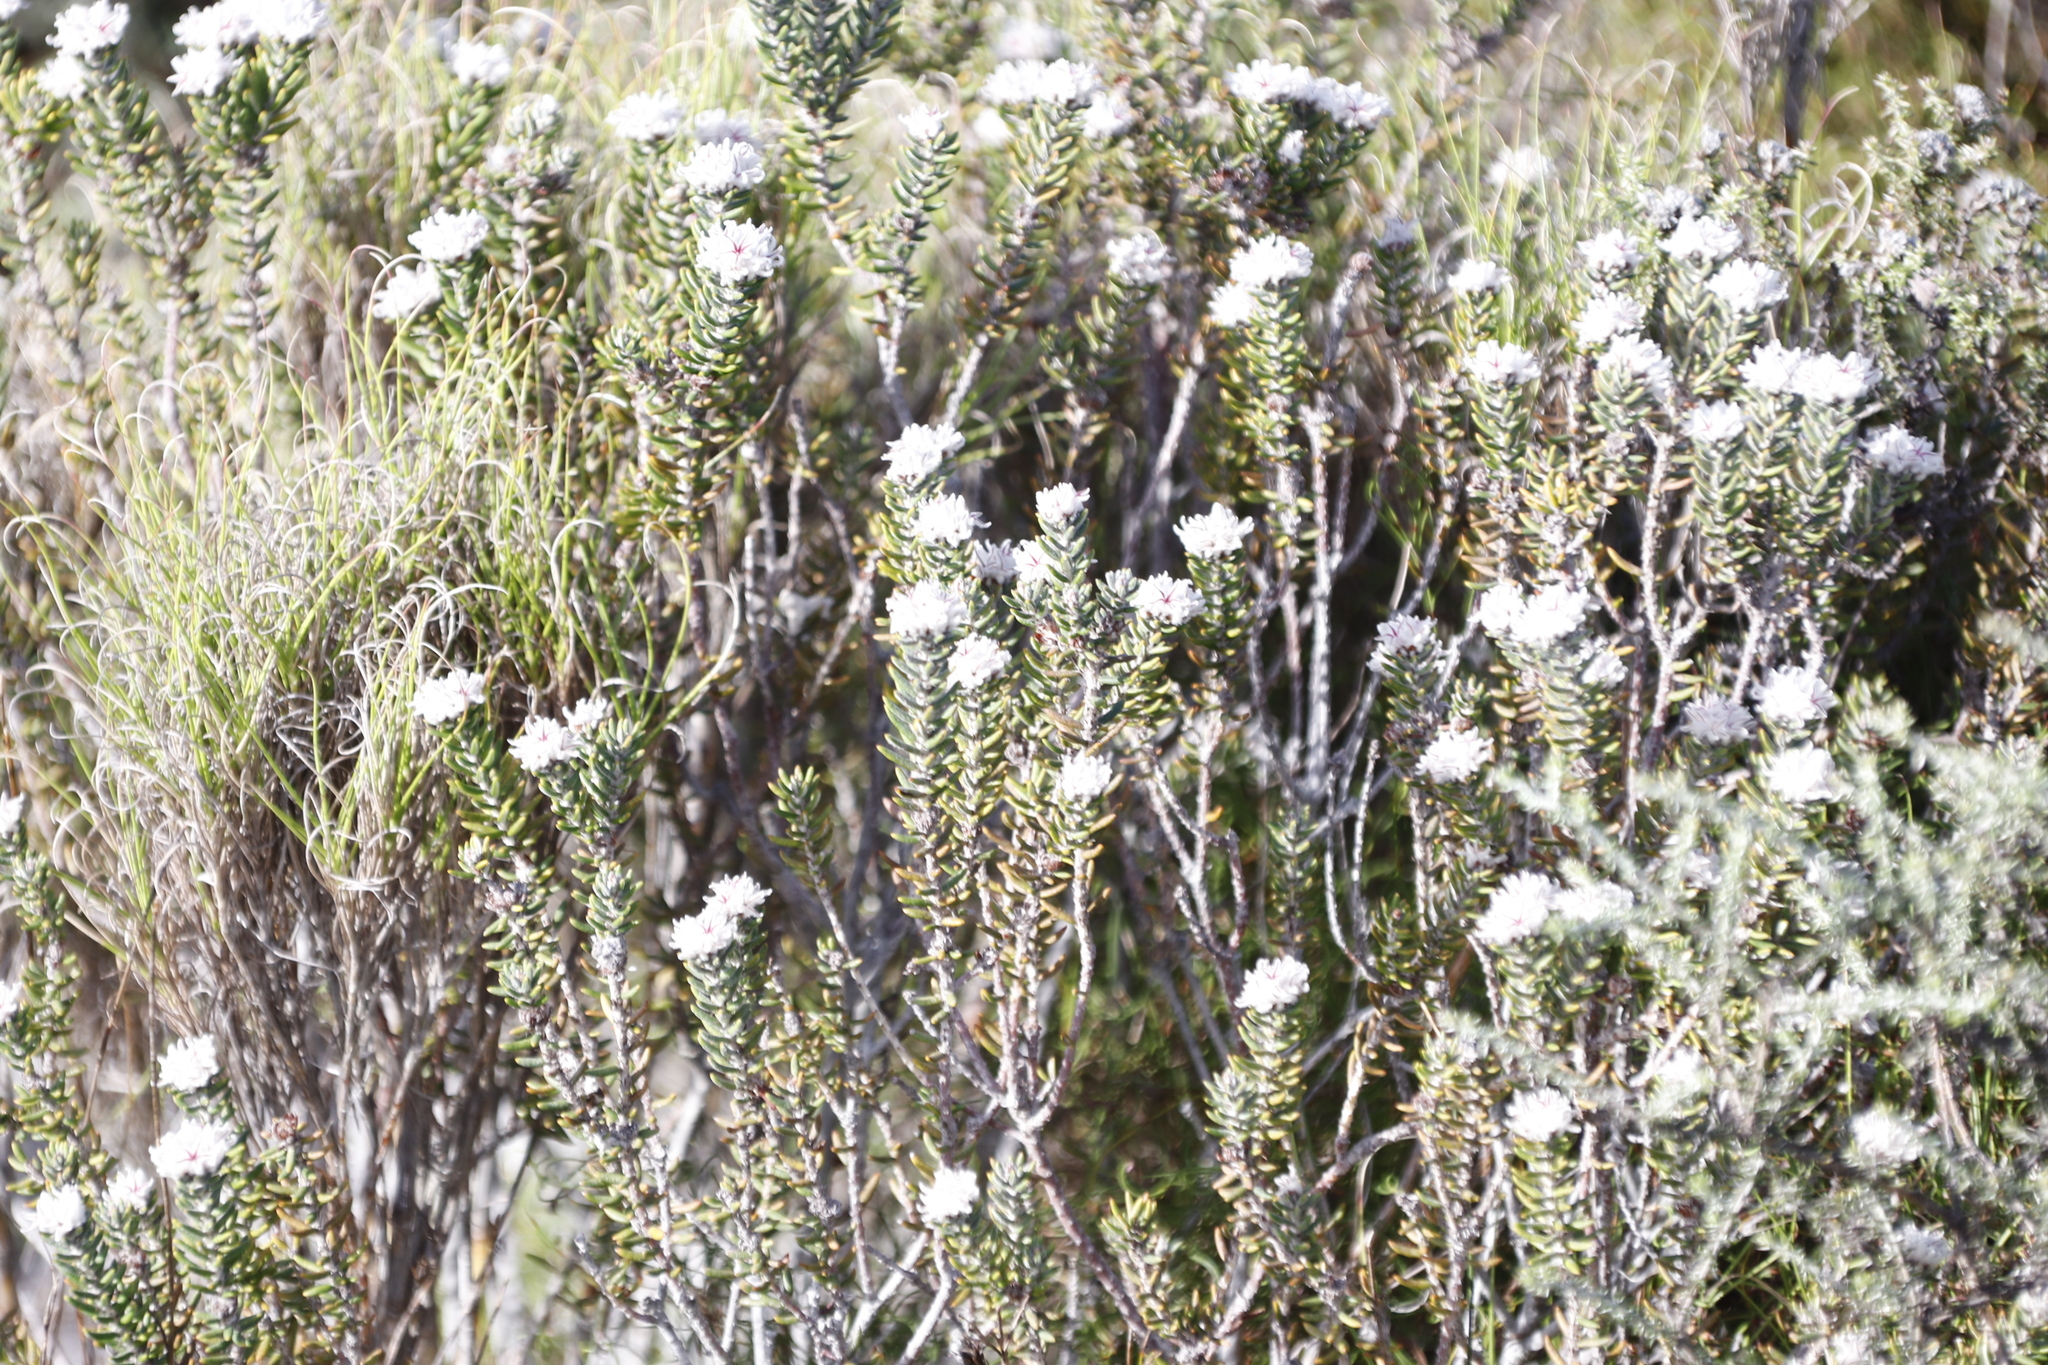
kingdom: Plantae
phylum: Tracheophyta
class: Magnoliopsida
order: Rosales
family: Rhamnaceae
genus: Trichocephalus
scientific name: Trichocephalus stipularis
